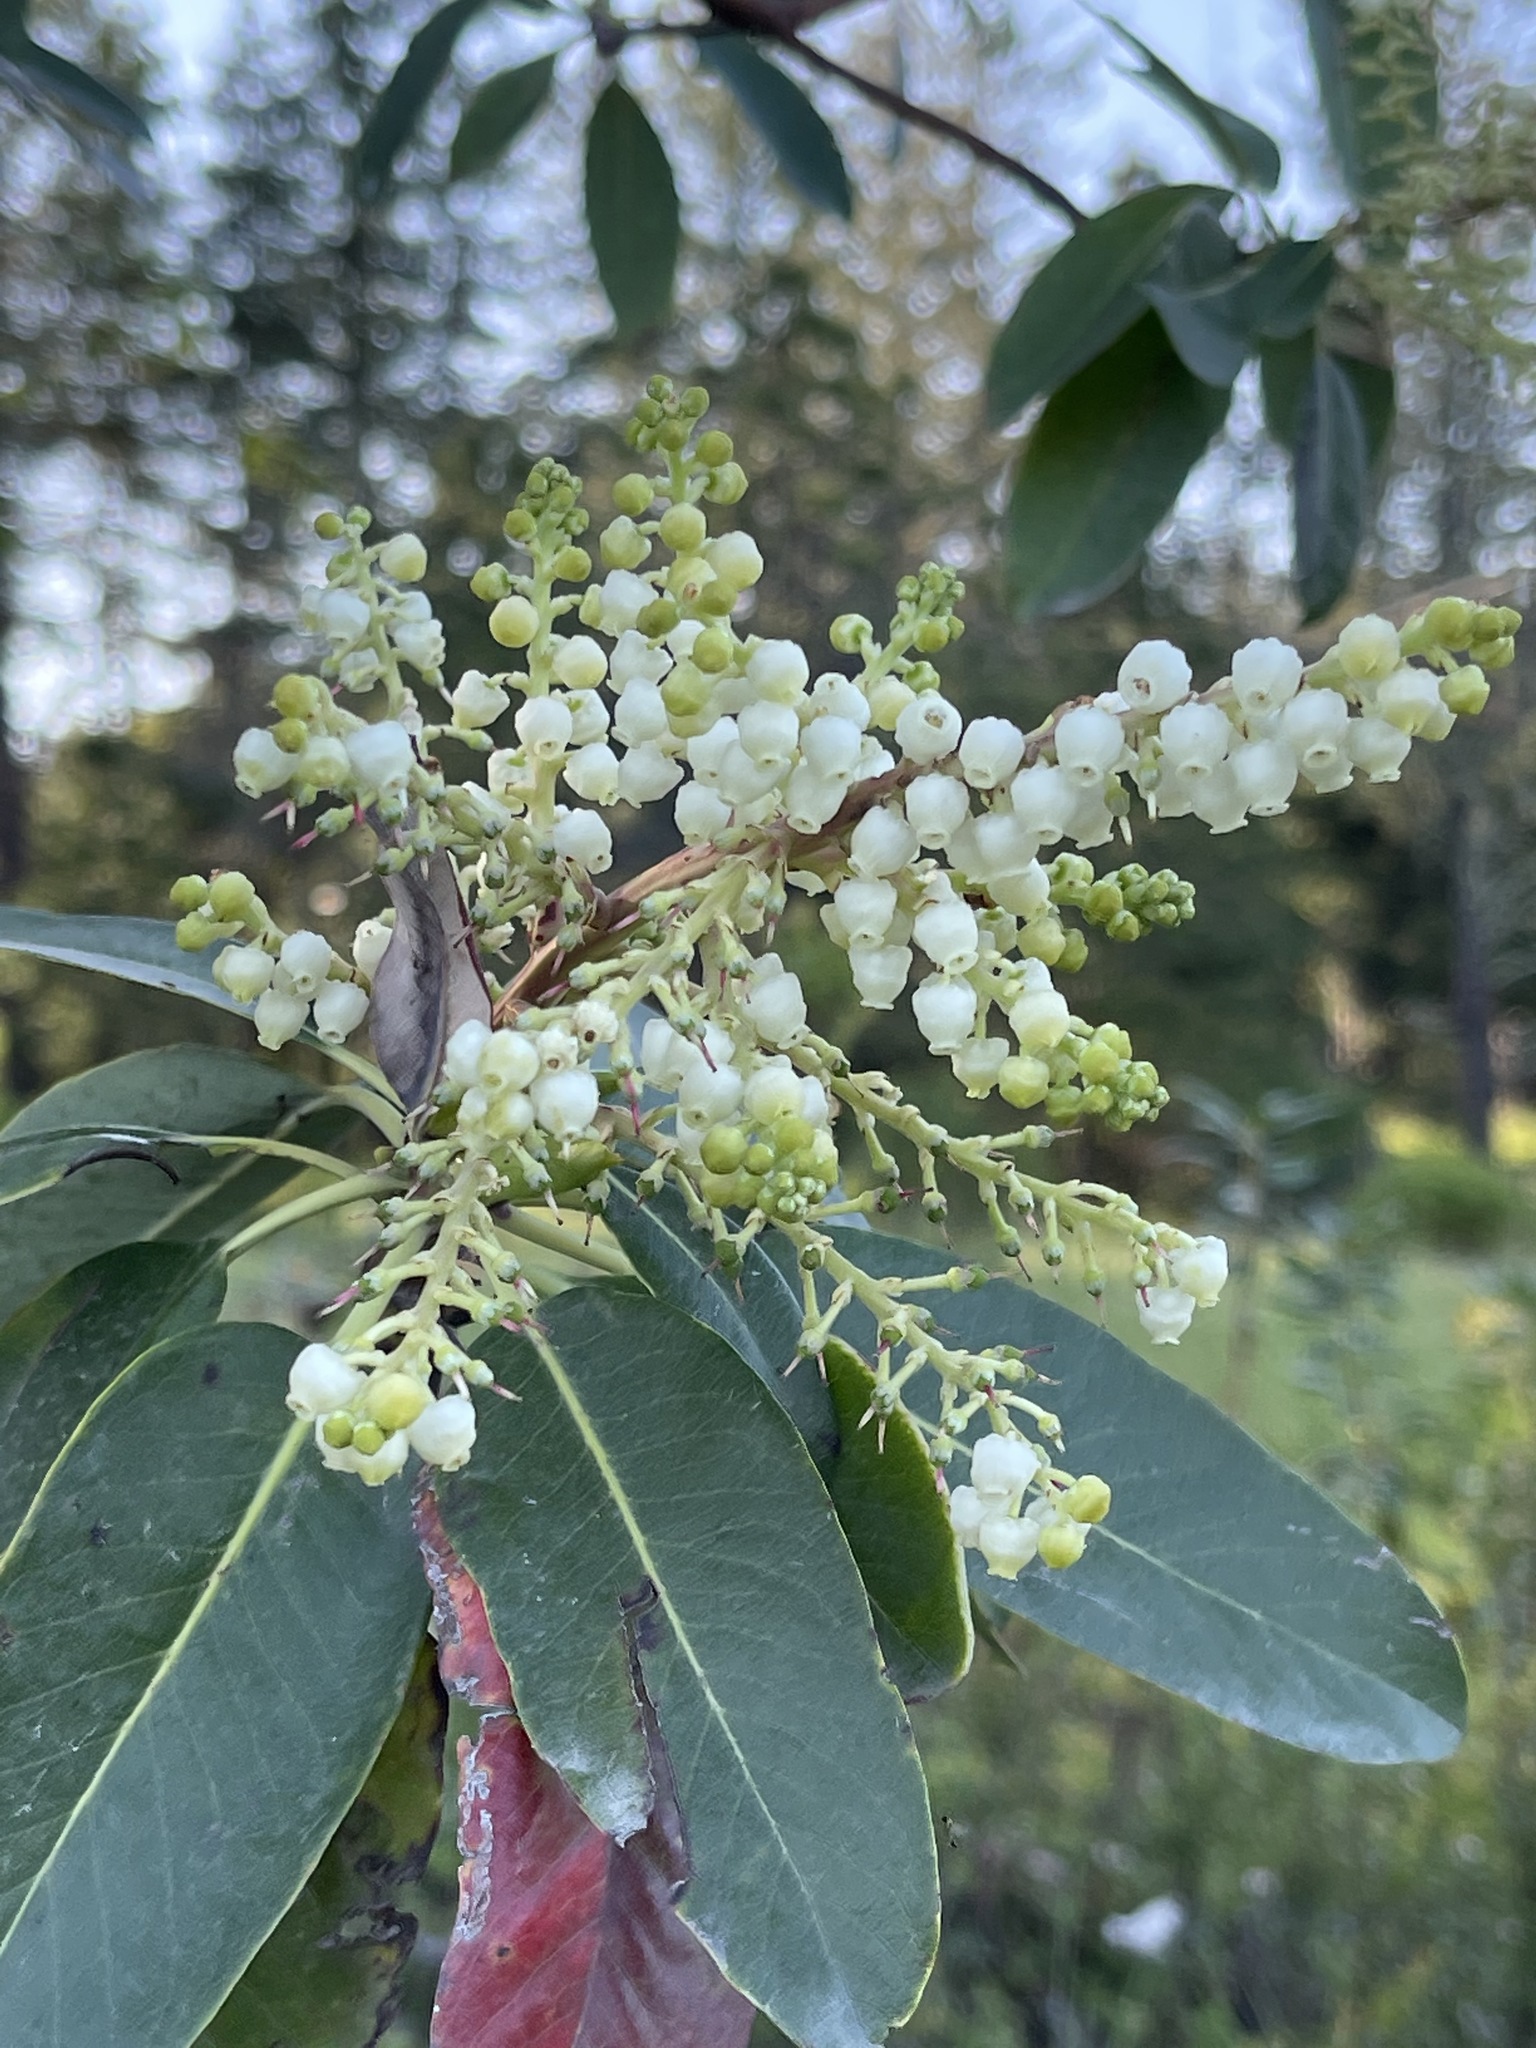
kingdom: Plantae
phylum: Tracheophyta
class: Magnoliopsida
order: Ericales
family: Ericaceae
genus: Arbutus
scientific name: Arbutus menziesii
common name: Pacific madrone
